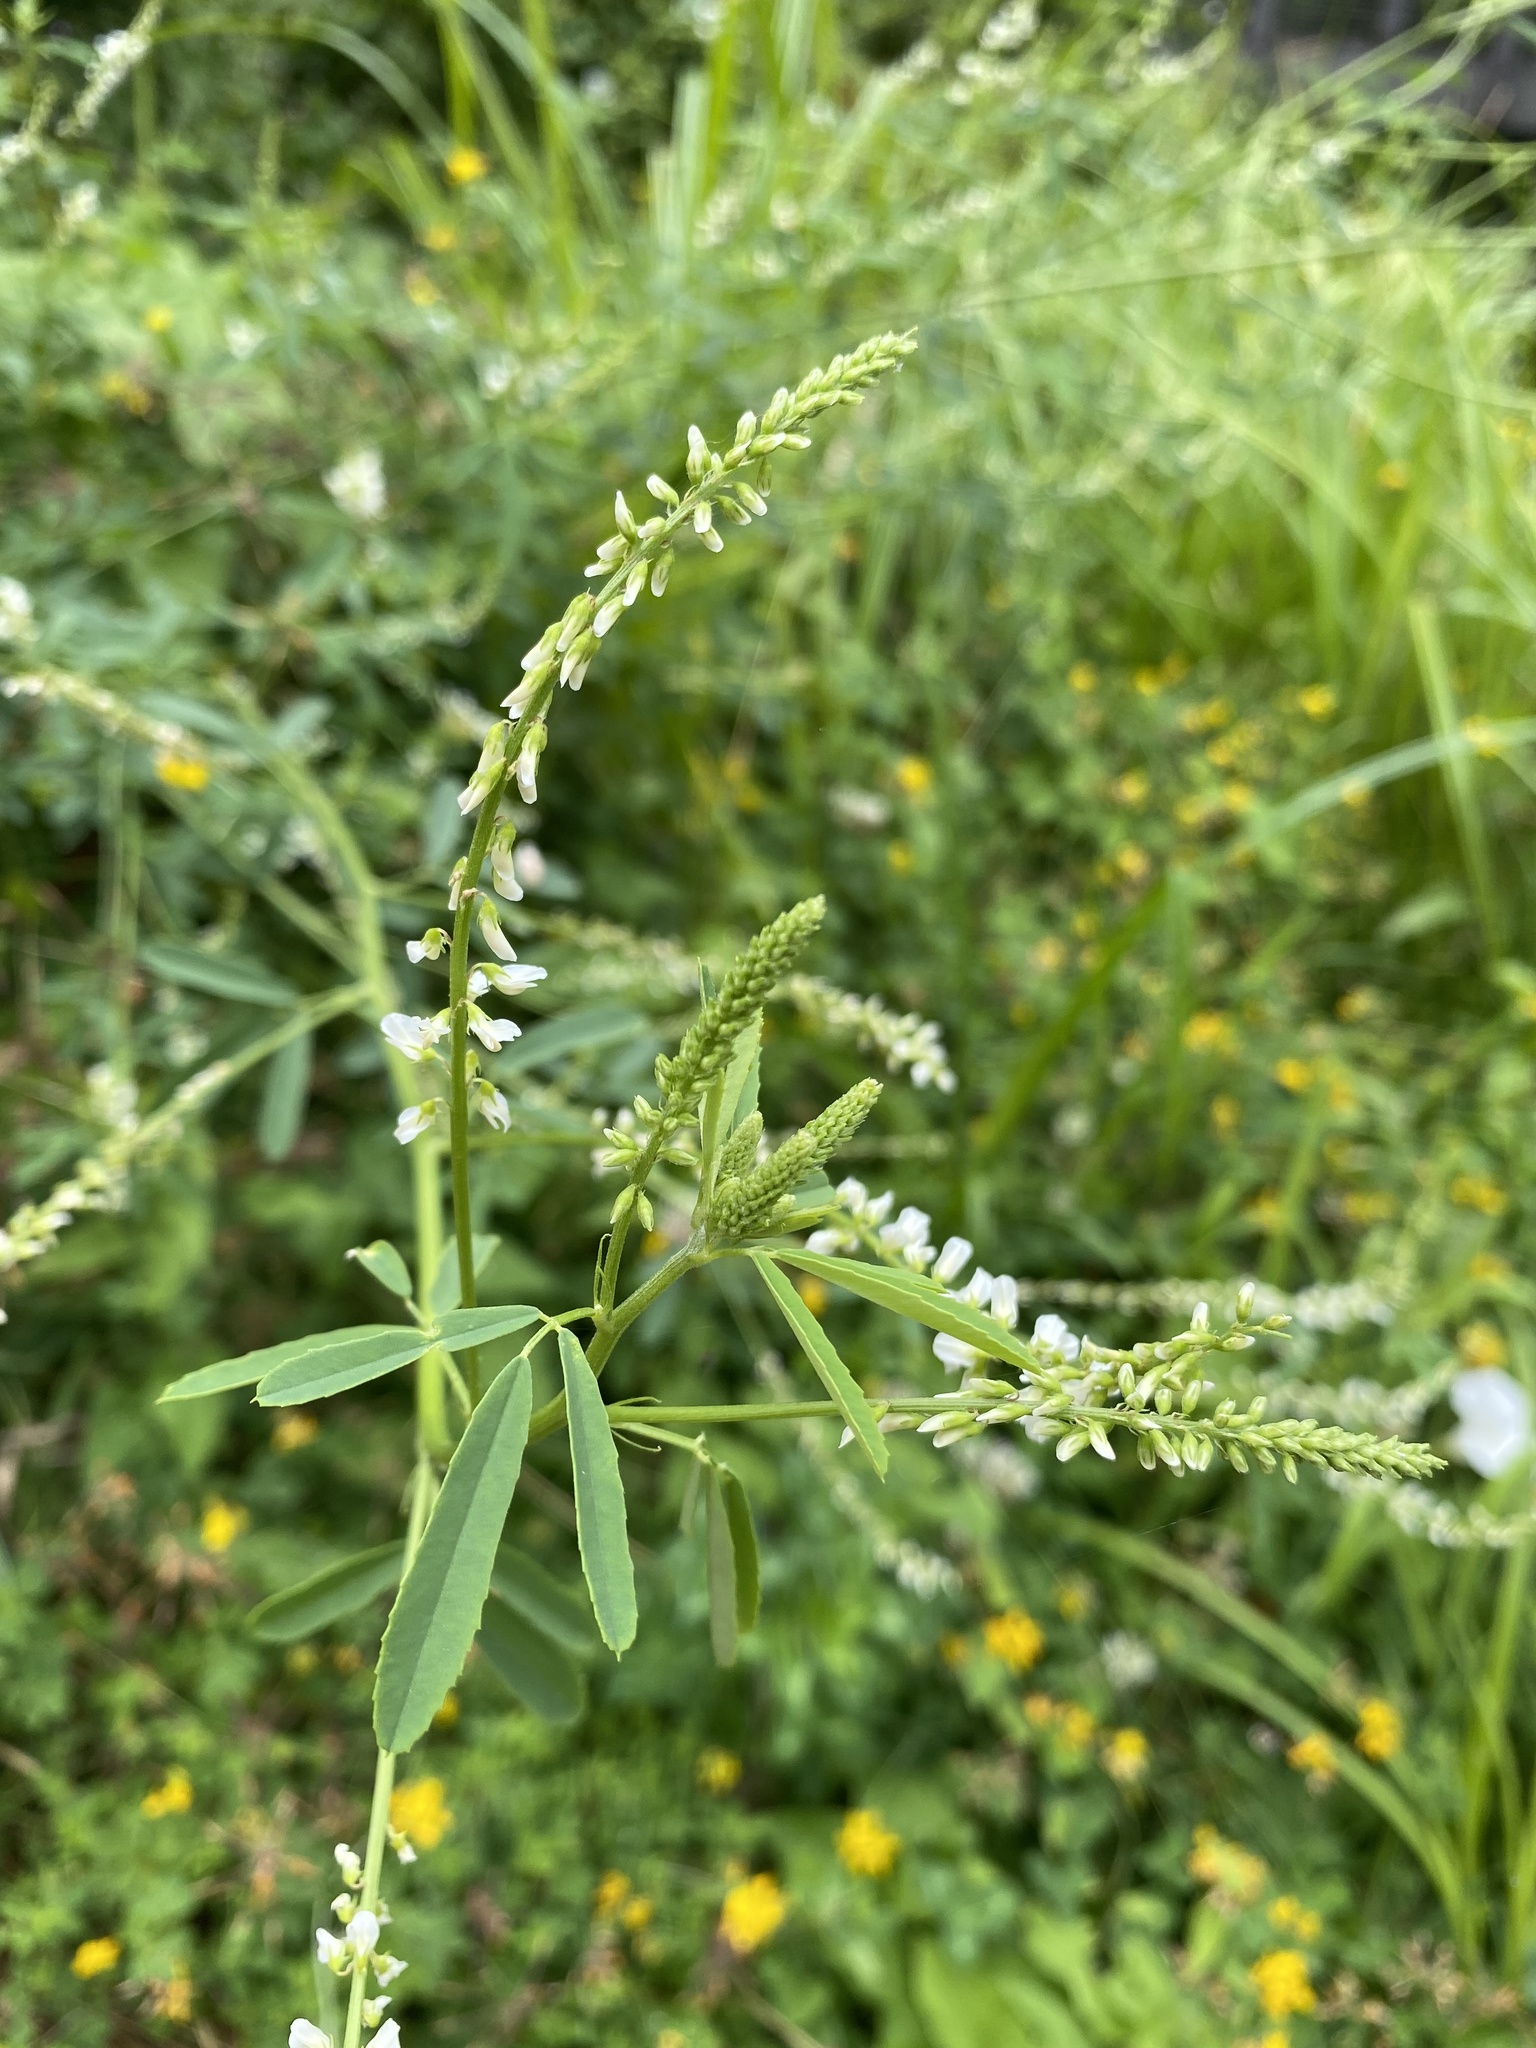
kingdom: Plantae
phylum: Tracheophyta
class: Magnoliopsida
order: Fabales
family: Fabaceae
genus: Melilotus
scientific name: Melilotus albus
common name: White melilot
